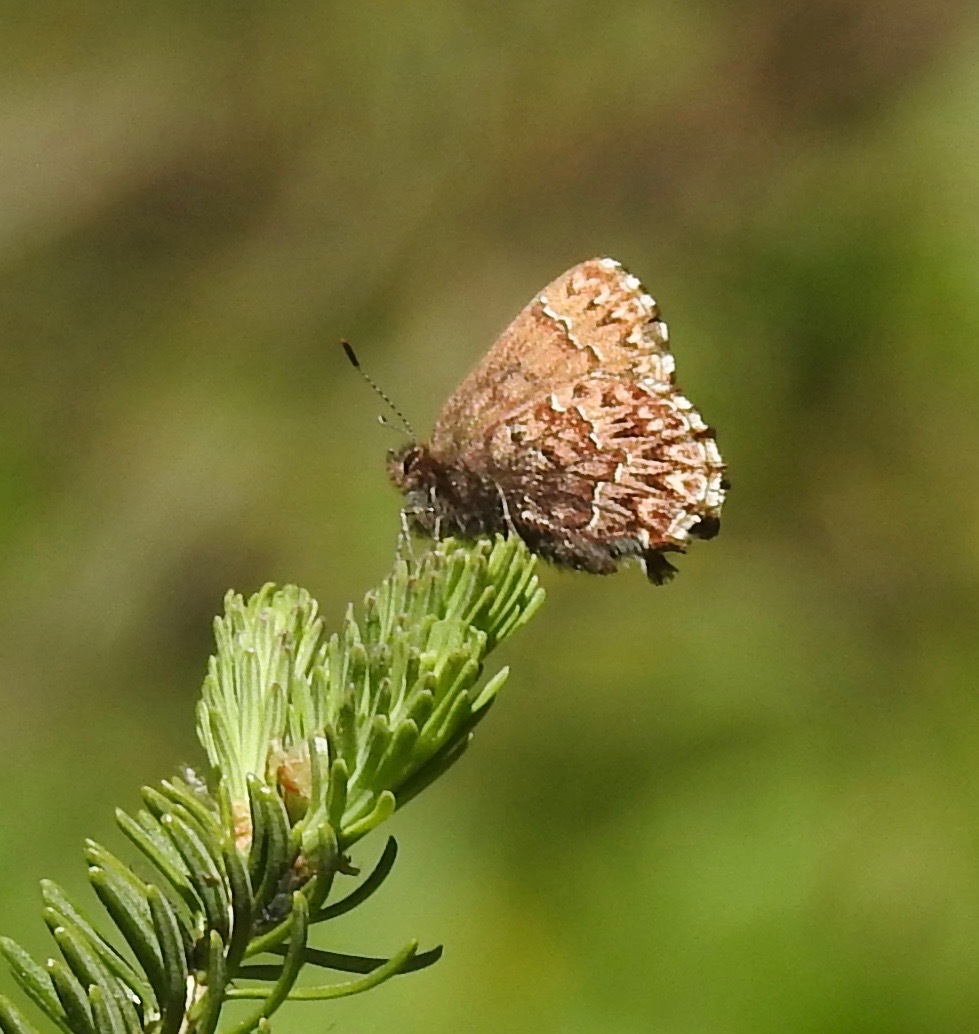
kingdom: Animalia
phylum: Arthropoda
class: Insecta
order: Lepidoptera
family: Lycaenidae
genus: Incisalia
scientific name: Incisalia eryphon
